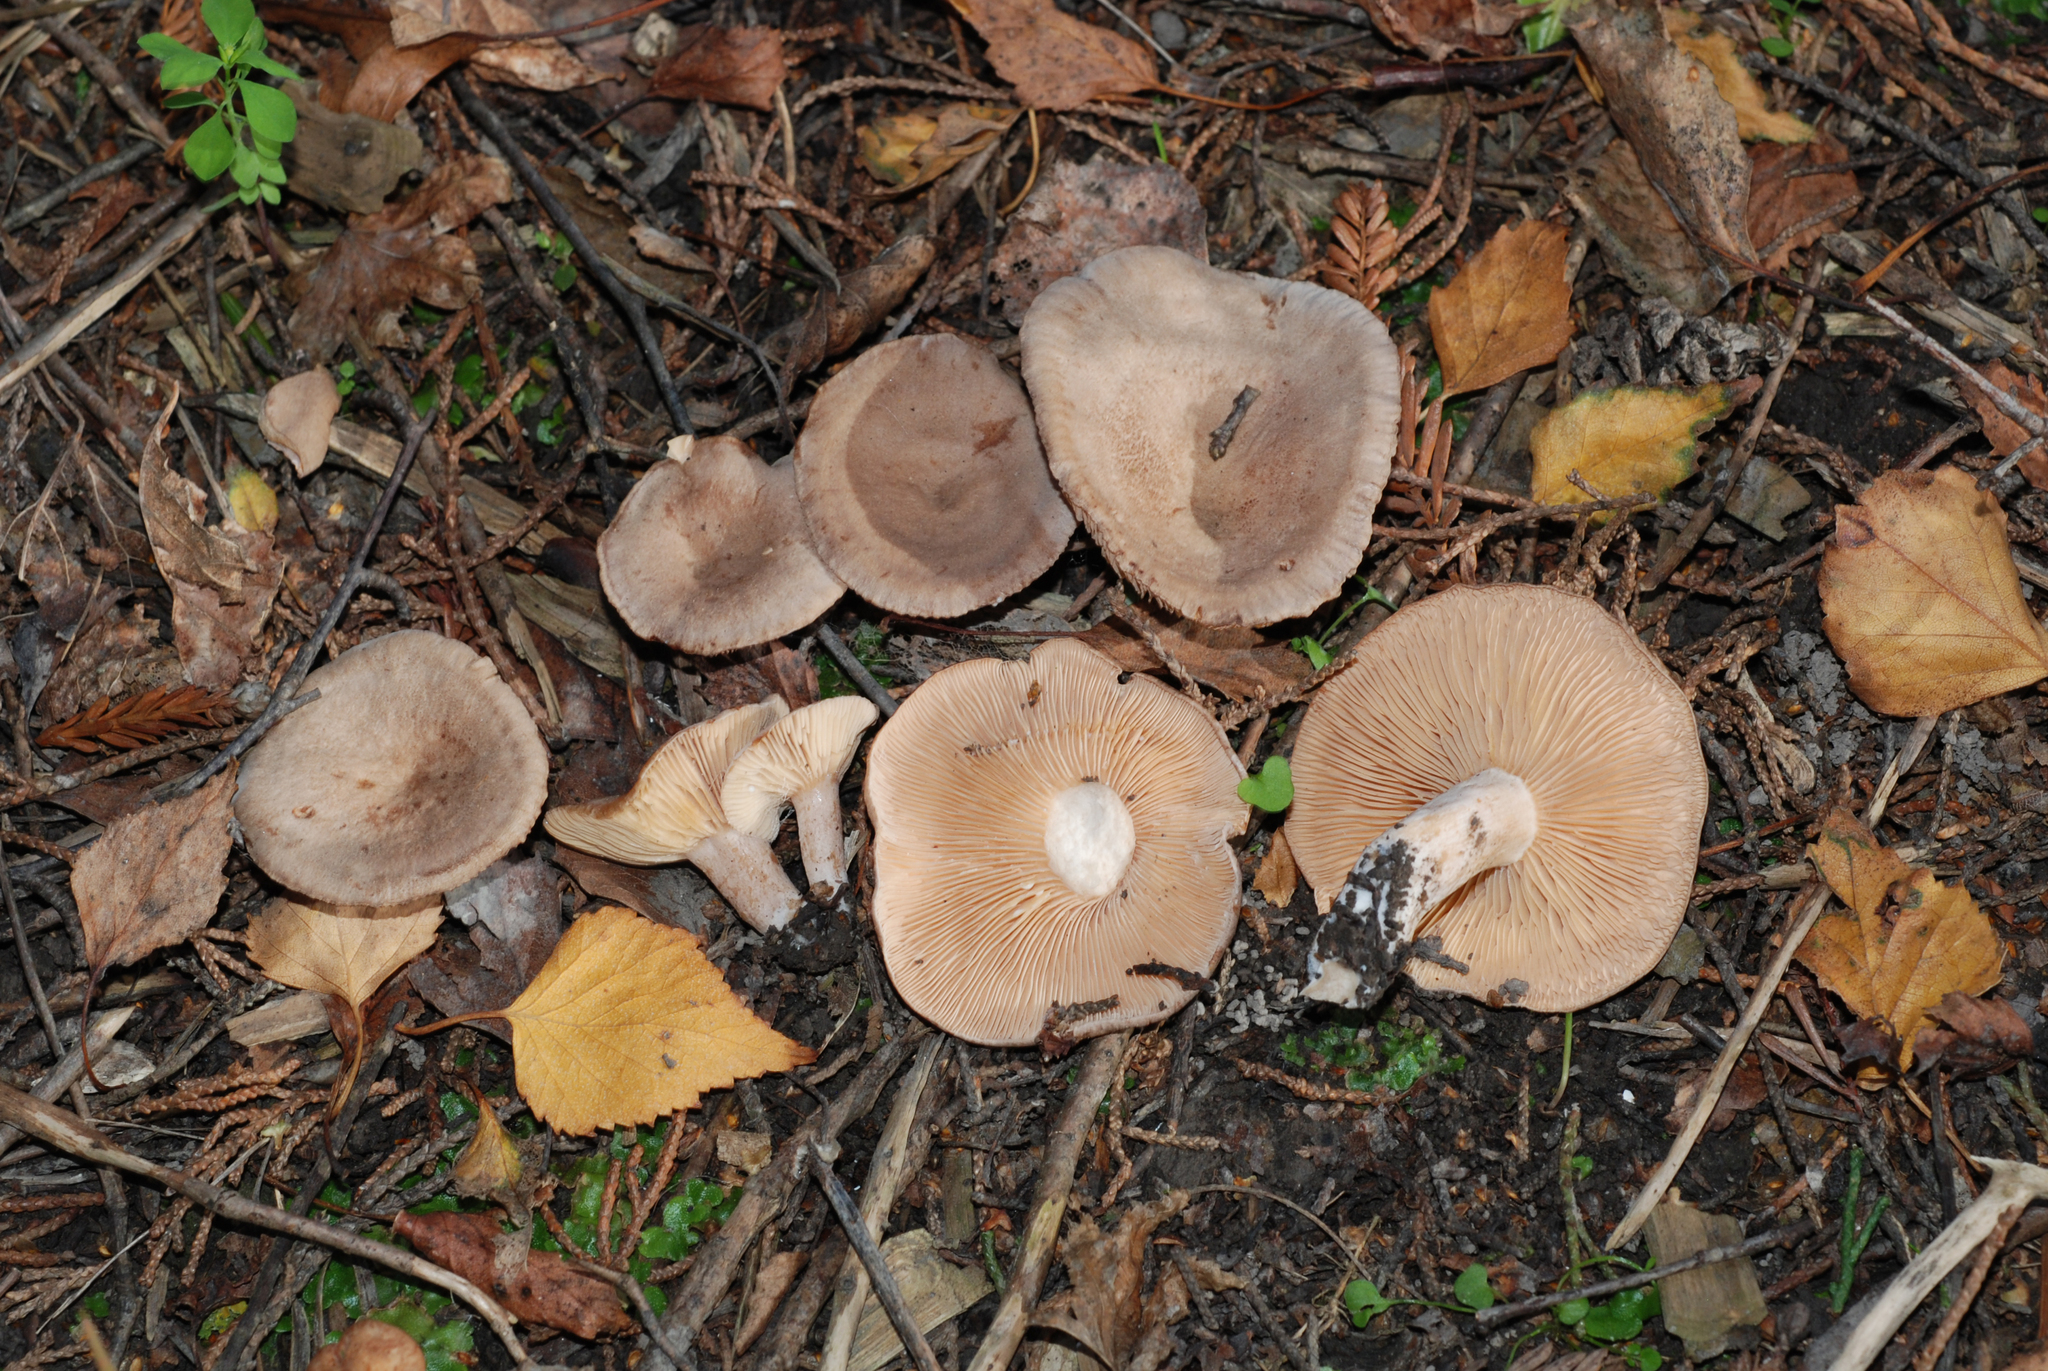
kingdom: Fungi
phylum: Basidiomycota
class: Agaricomycetes
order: Russulales
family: Russulaceae
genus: Lactarius
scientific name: Lactarius glyciosmus
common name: Coconut milkcap
